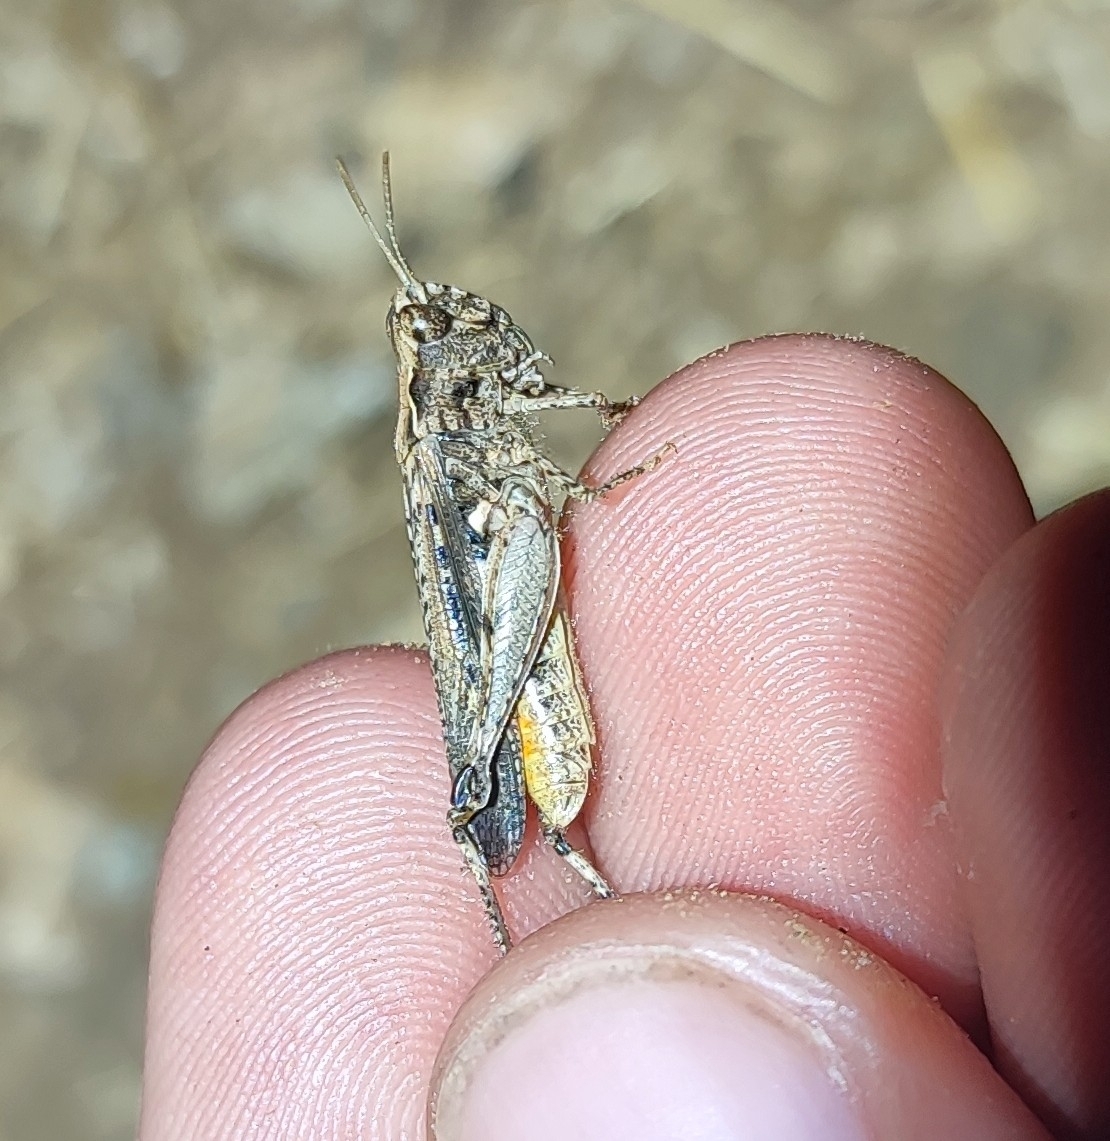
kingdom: Animalia
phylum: Arthropoda
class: Insecta
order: Orthoptera
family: Acrididae
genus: Omocestus
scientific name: Omocestus raymondi
